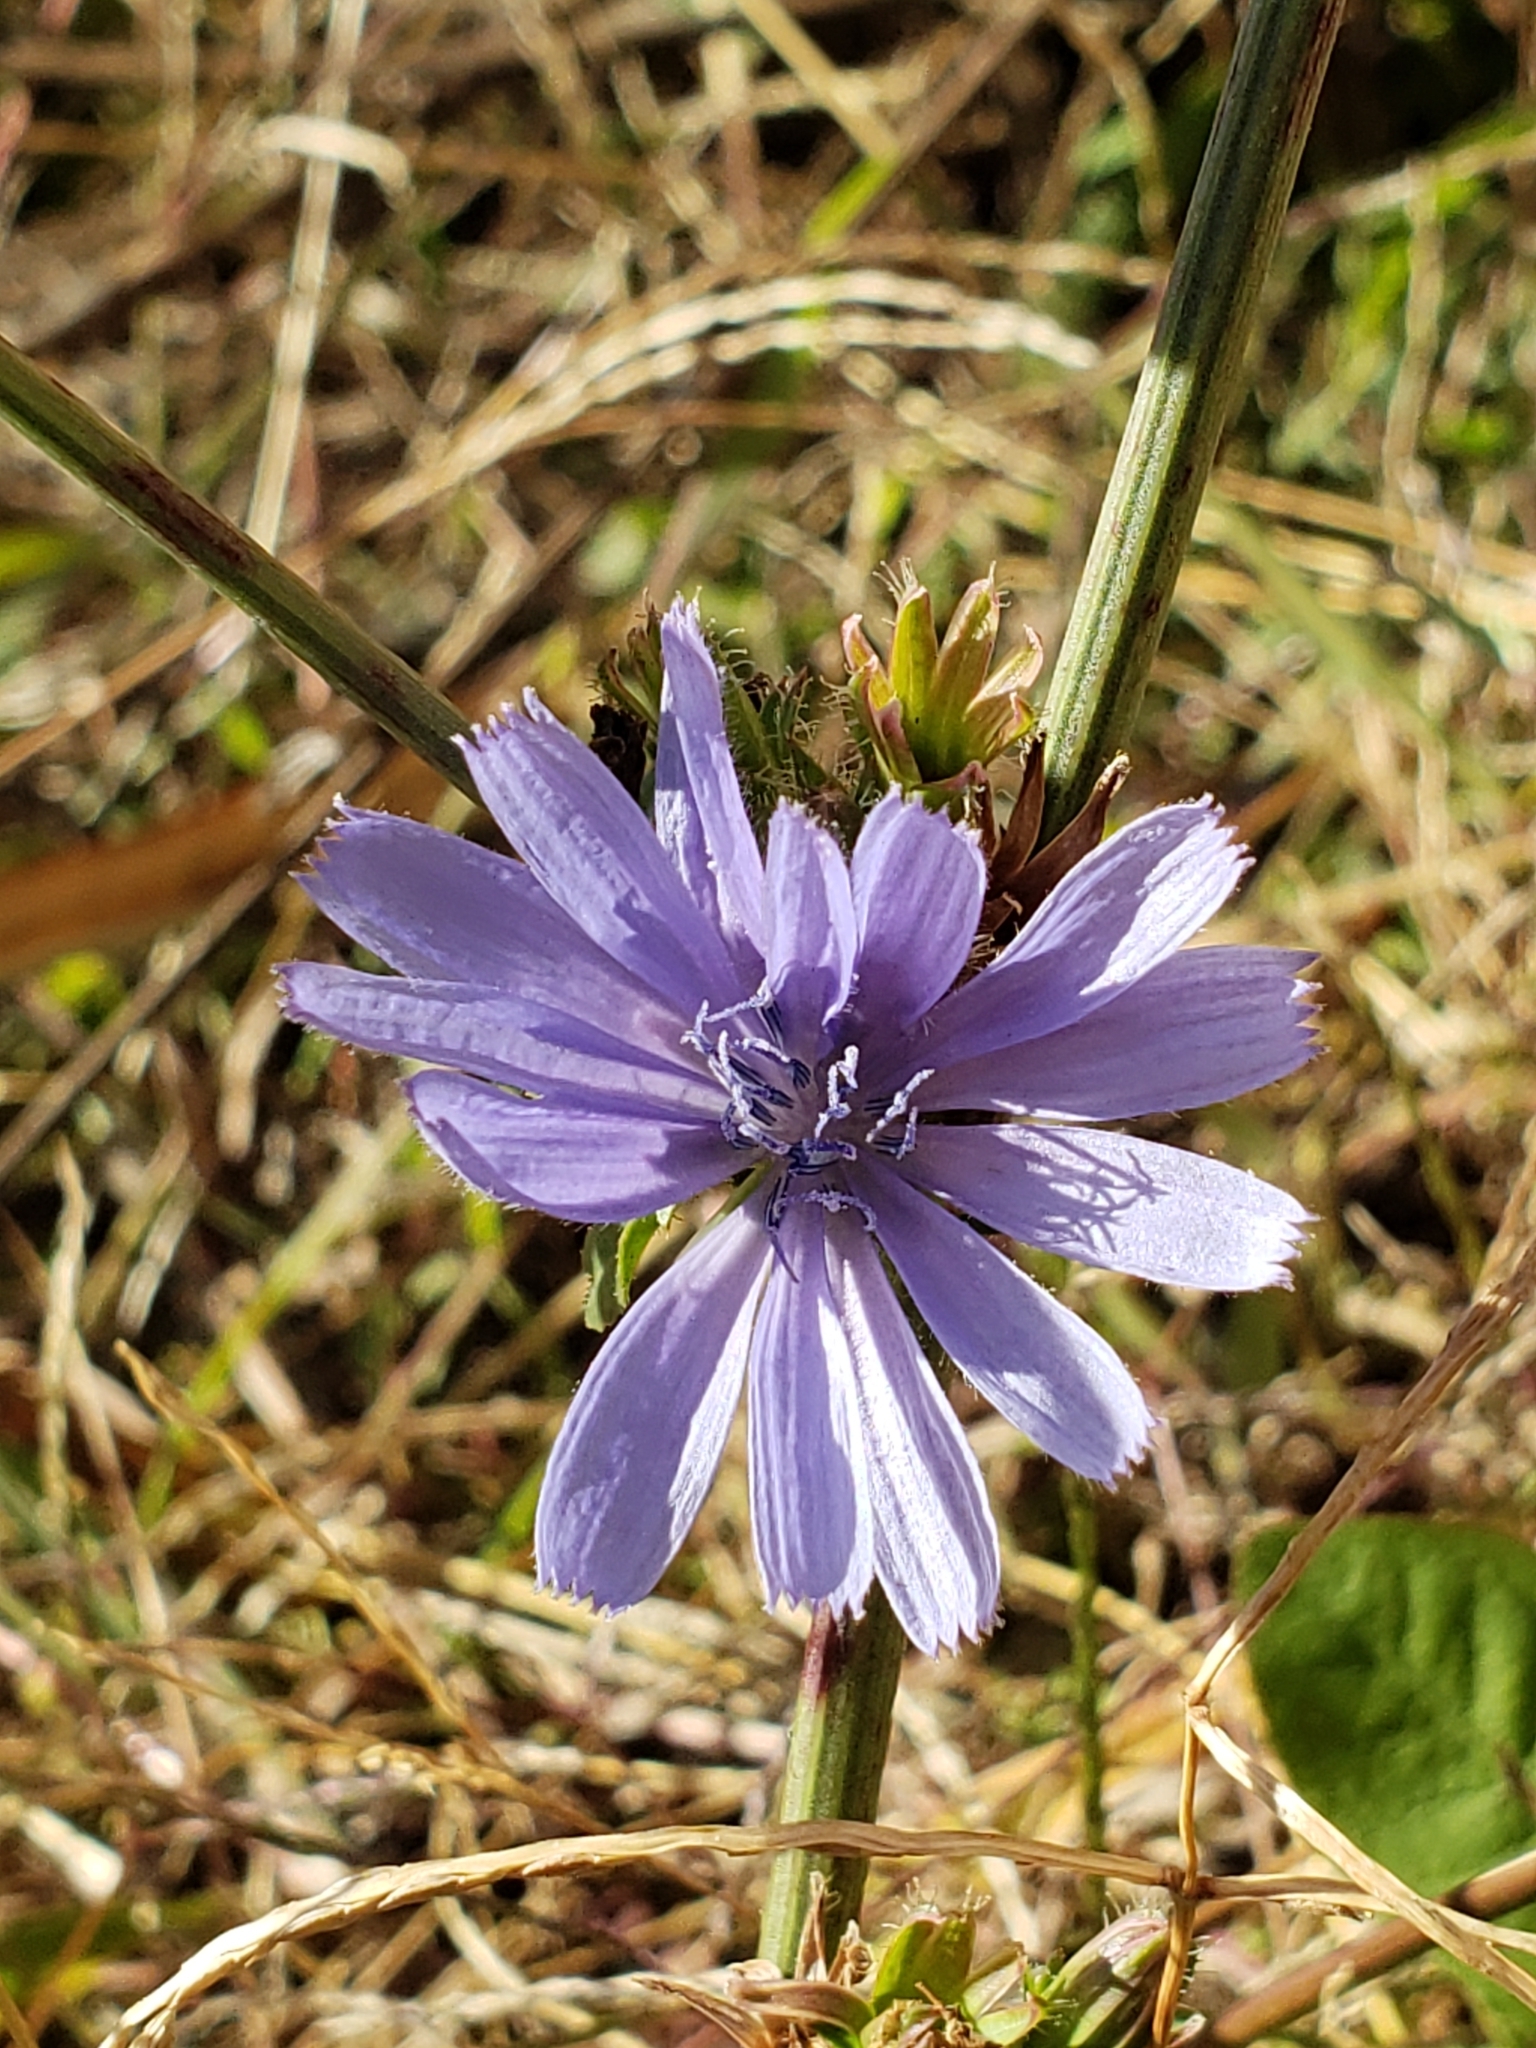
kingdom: Plantae
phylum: Tracheophyta
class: Magnoliopsida
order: Asterales
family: Asteraceae
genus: Cichorium
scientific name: Cichorium intybus
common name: Chicory
